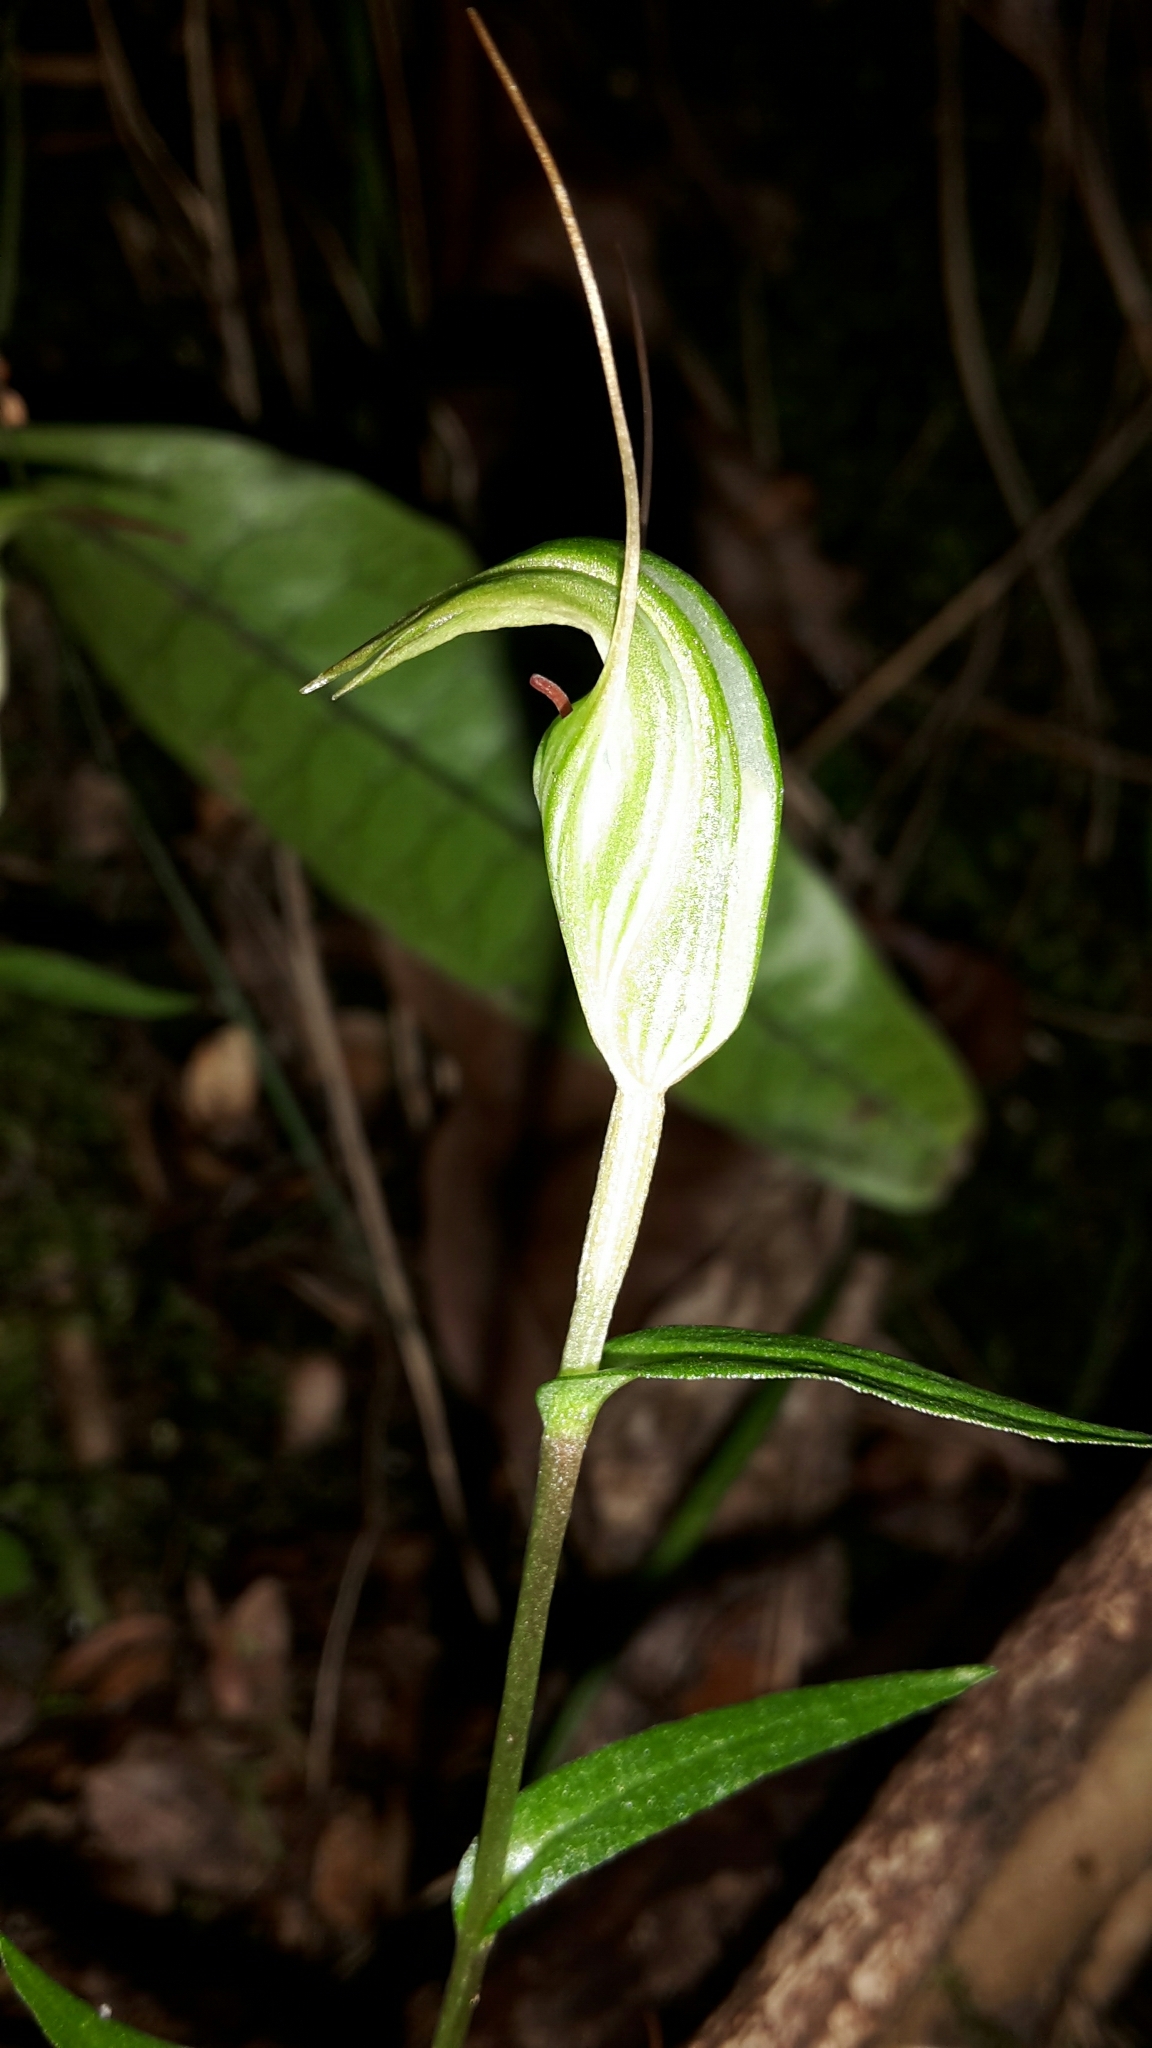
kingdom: Plantae
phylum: Tracheophyta
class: Liliopsida
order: Asparagales
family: Orchidaceae
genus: Pterostylis
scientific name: Pterostylis alobula
